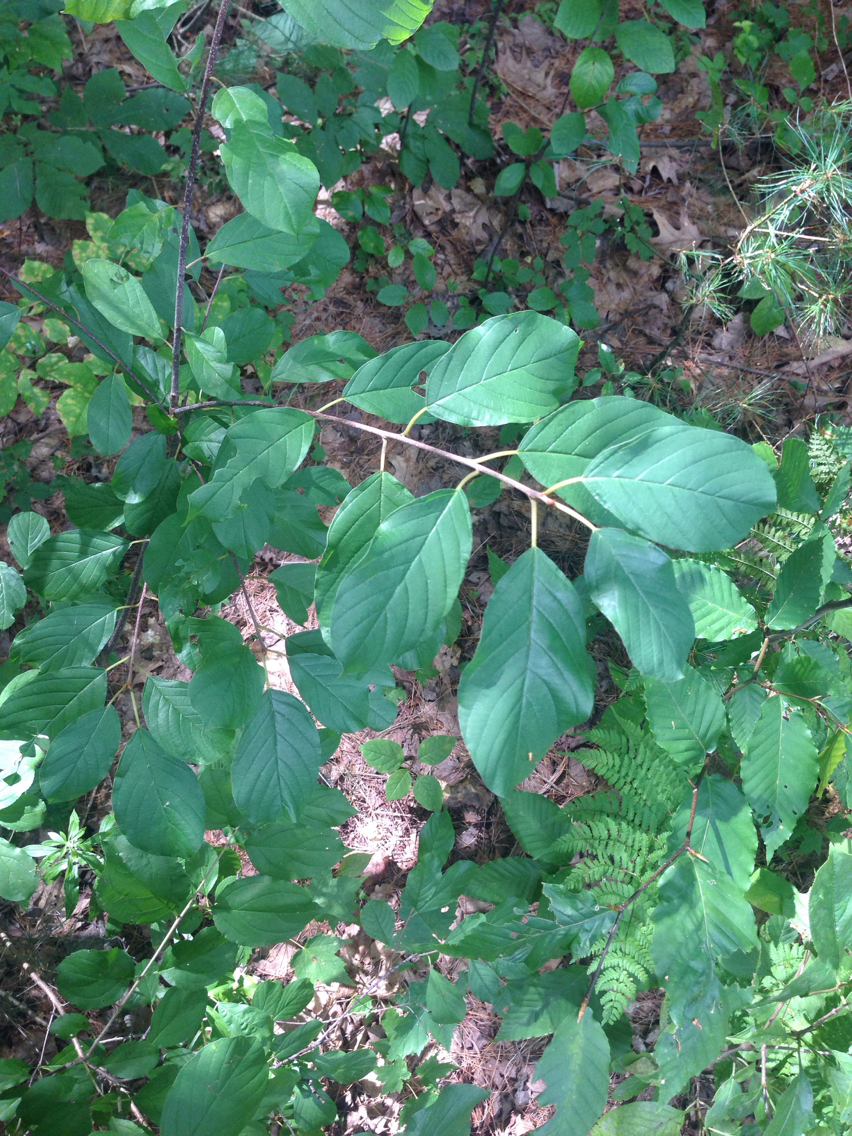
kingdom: Plantae
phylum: Tracheophyta
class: Magnoliopsida
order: Rosales
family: Rhamnaceae
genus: Frangula
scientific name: Frangula alnus
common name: Alder buckthorn
